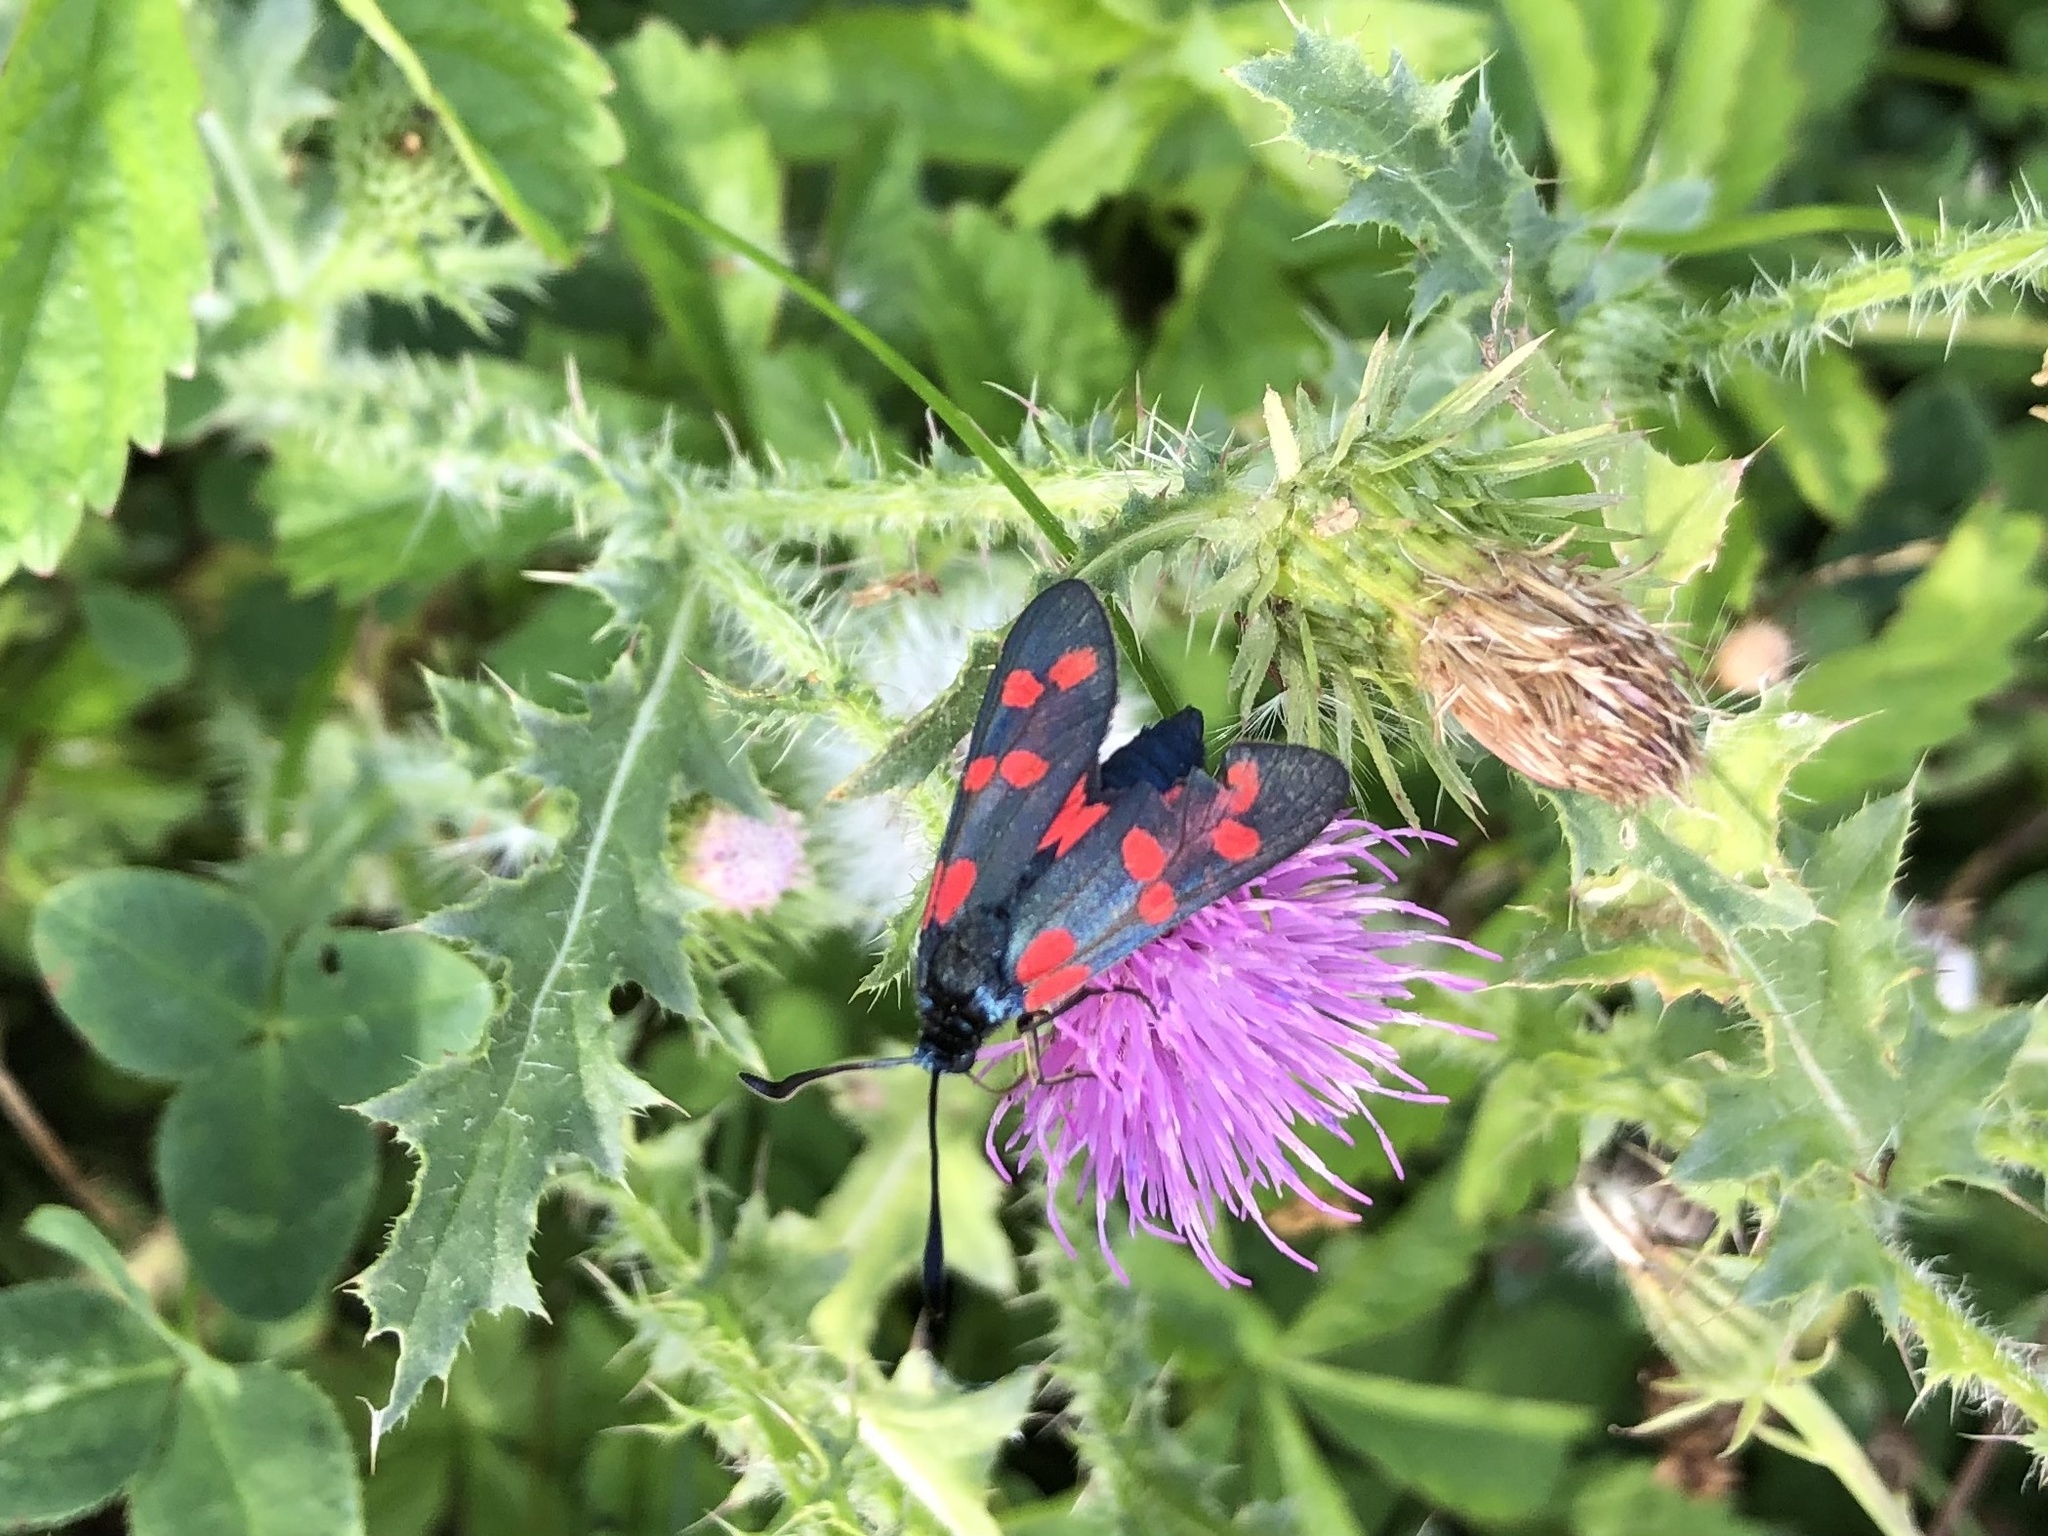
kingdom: Animalia
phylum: Arthropoda
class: Insecta
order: Lepidoptera
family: Zygaenidae
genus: Zygaena
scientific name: Zygaena filipendulae
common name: Six-spot burnet
